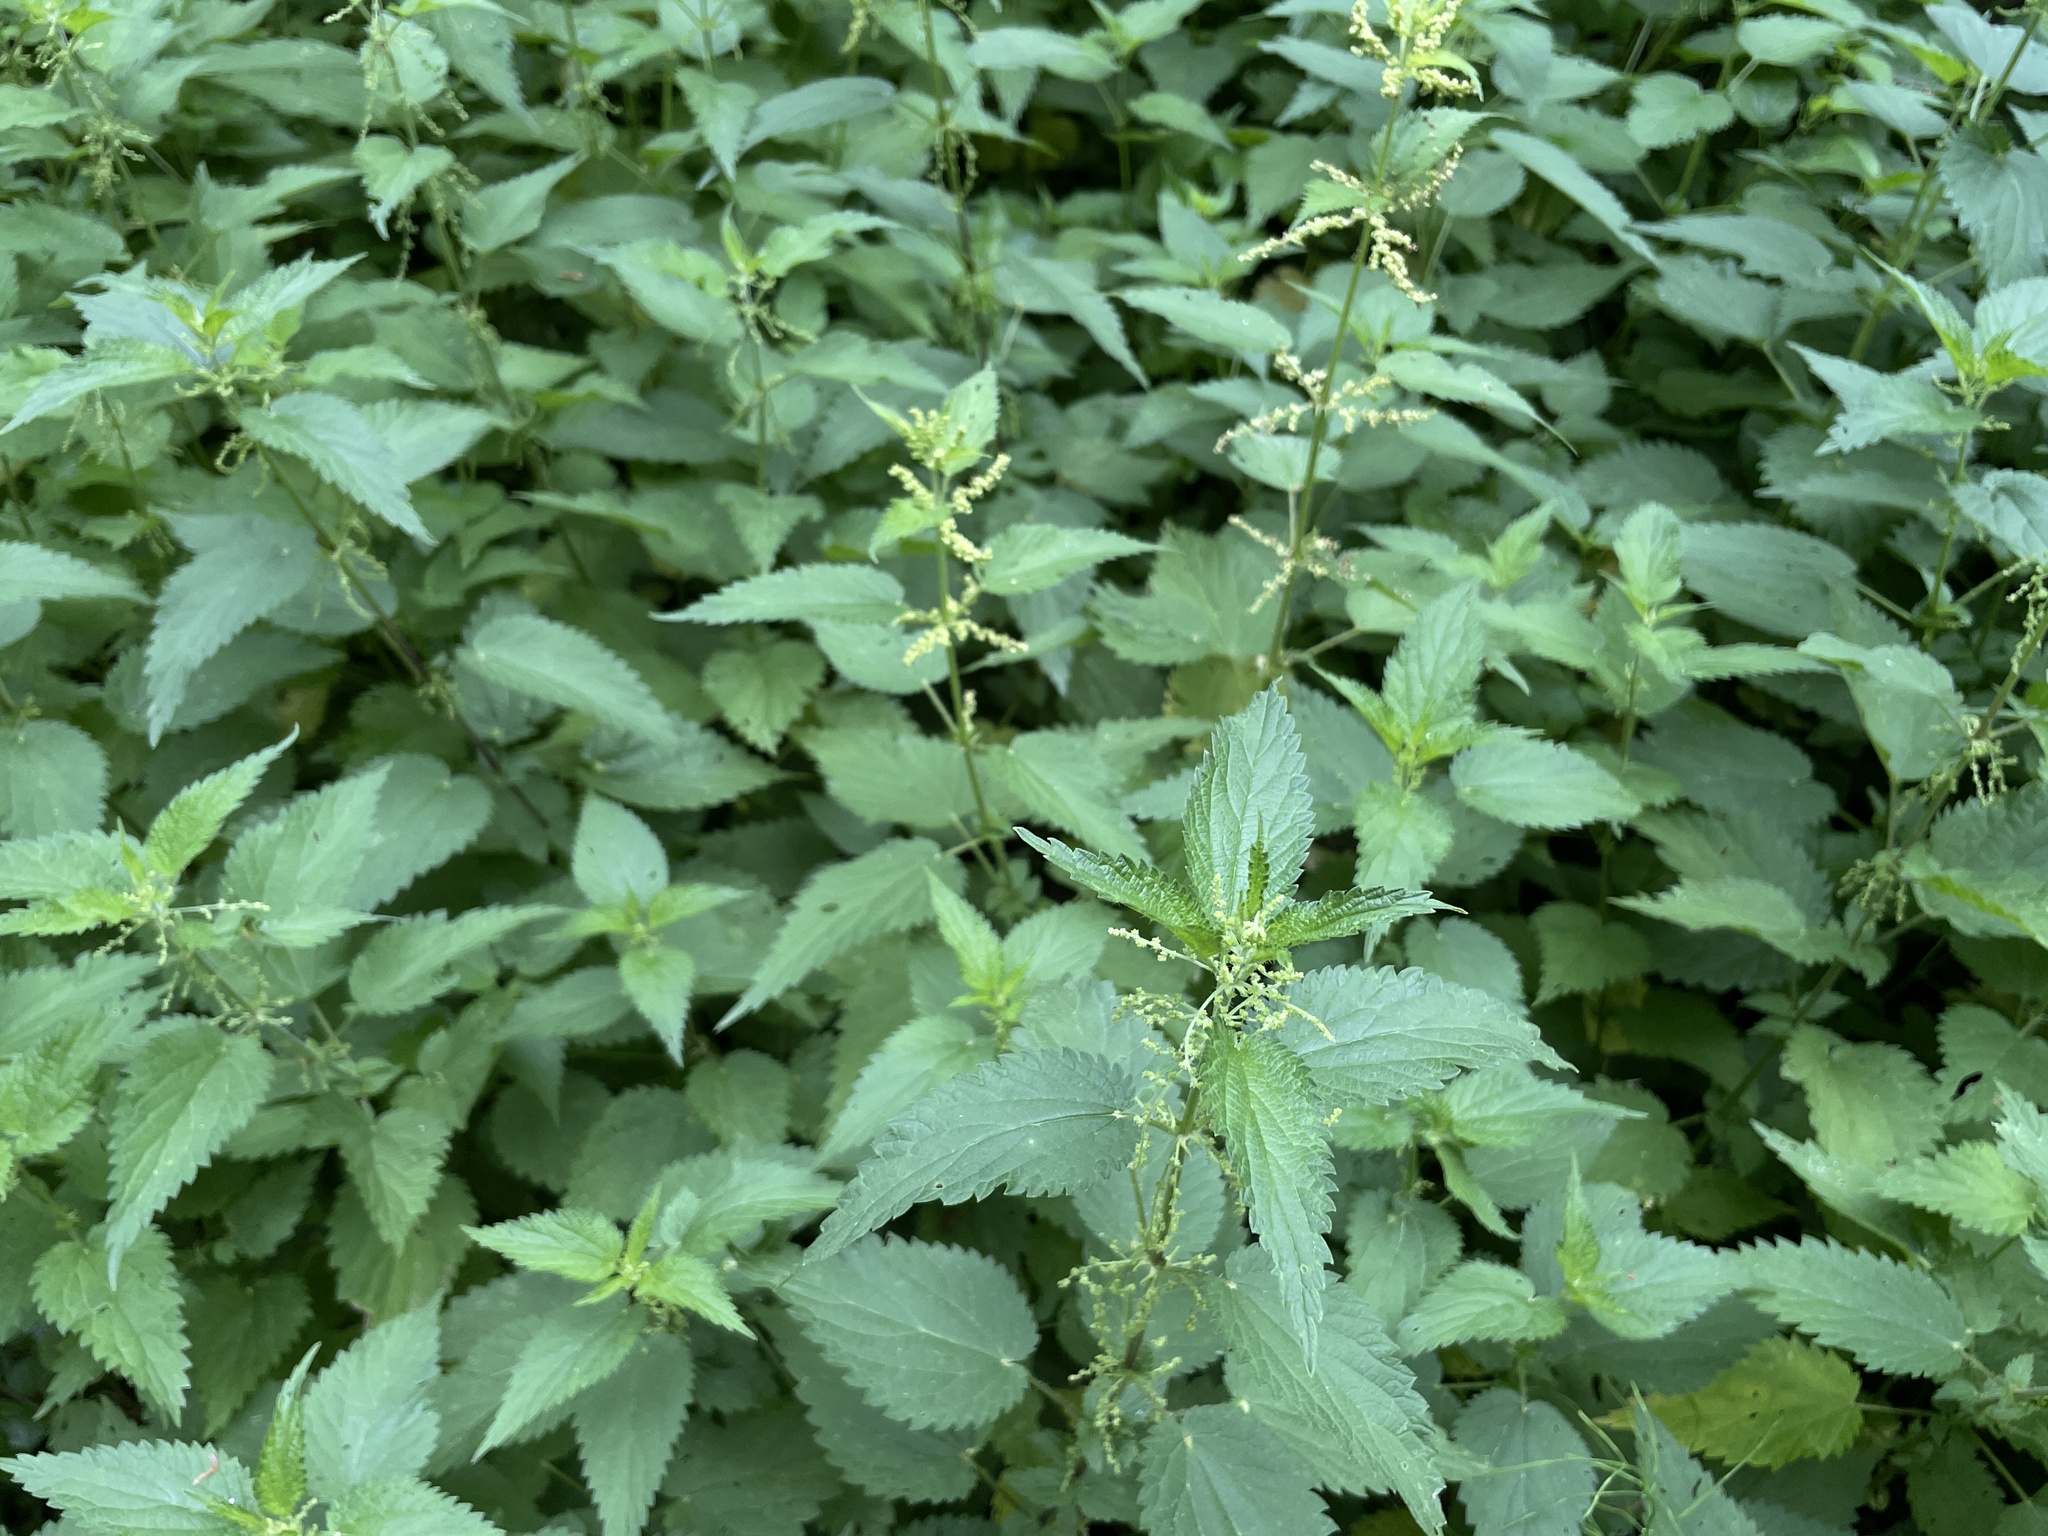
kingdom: Plantae
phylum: Tracheophyta
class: Magnoliopsida
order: Rosales
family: Urticaceae
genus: Urtica
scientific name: Urtica dioica
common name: Common nettle
